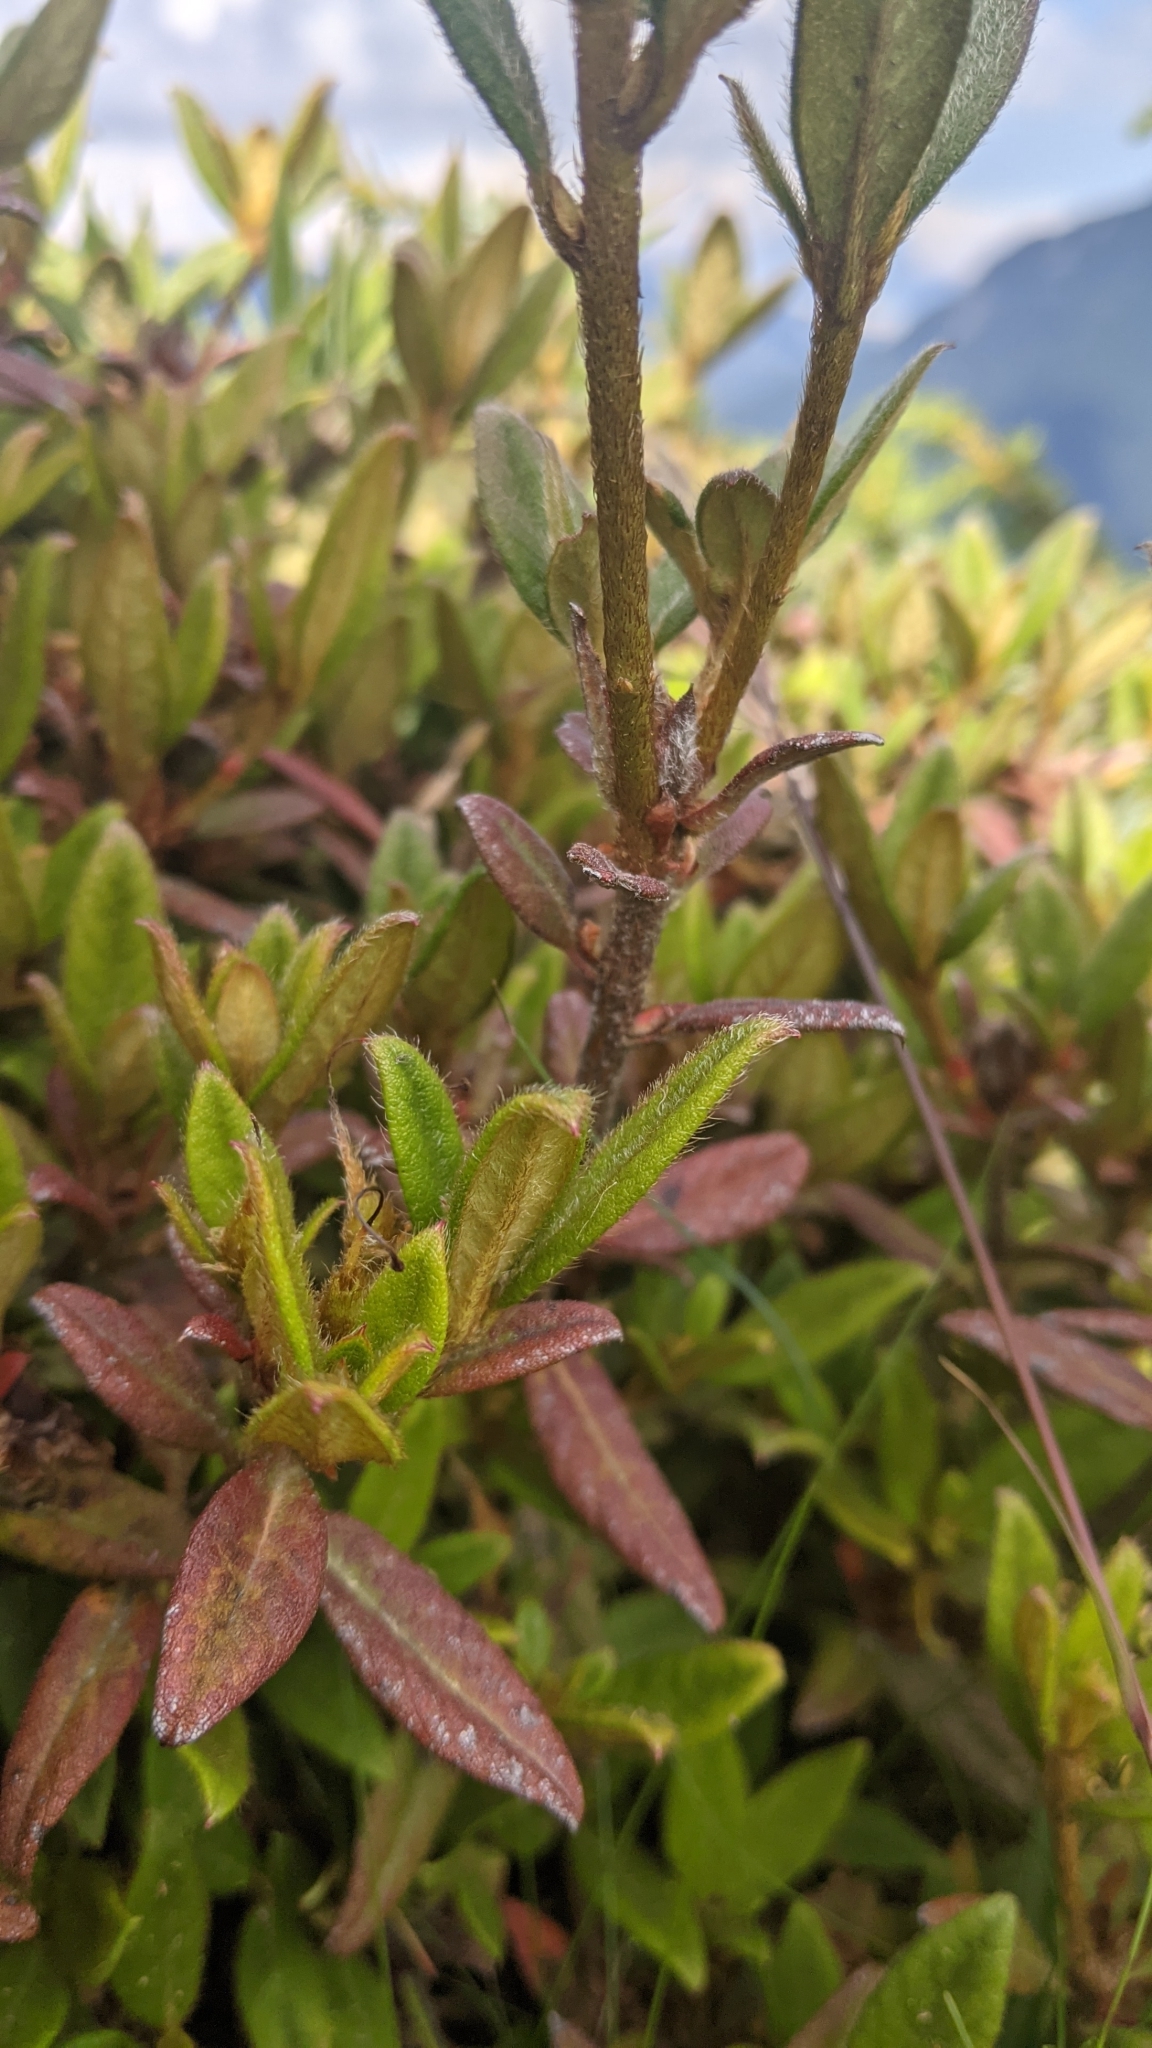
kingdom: Plantae
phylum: Tracheophyta
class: Magnoliopsida
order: Ericales
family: Ericaceae
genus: Rhododendron
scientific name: Rhododendron taiwanalpinum
